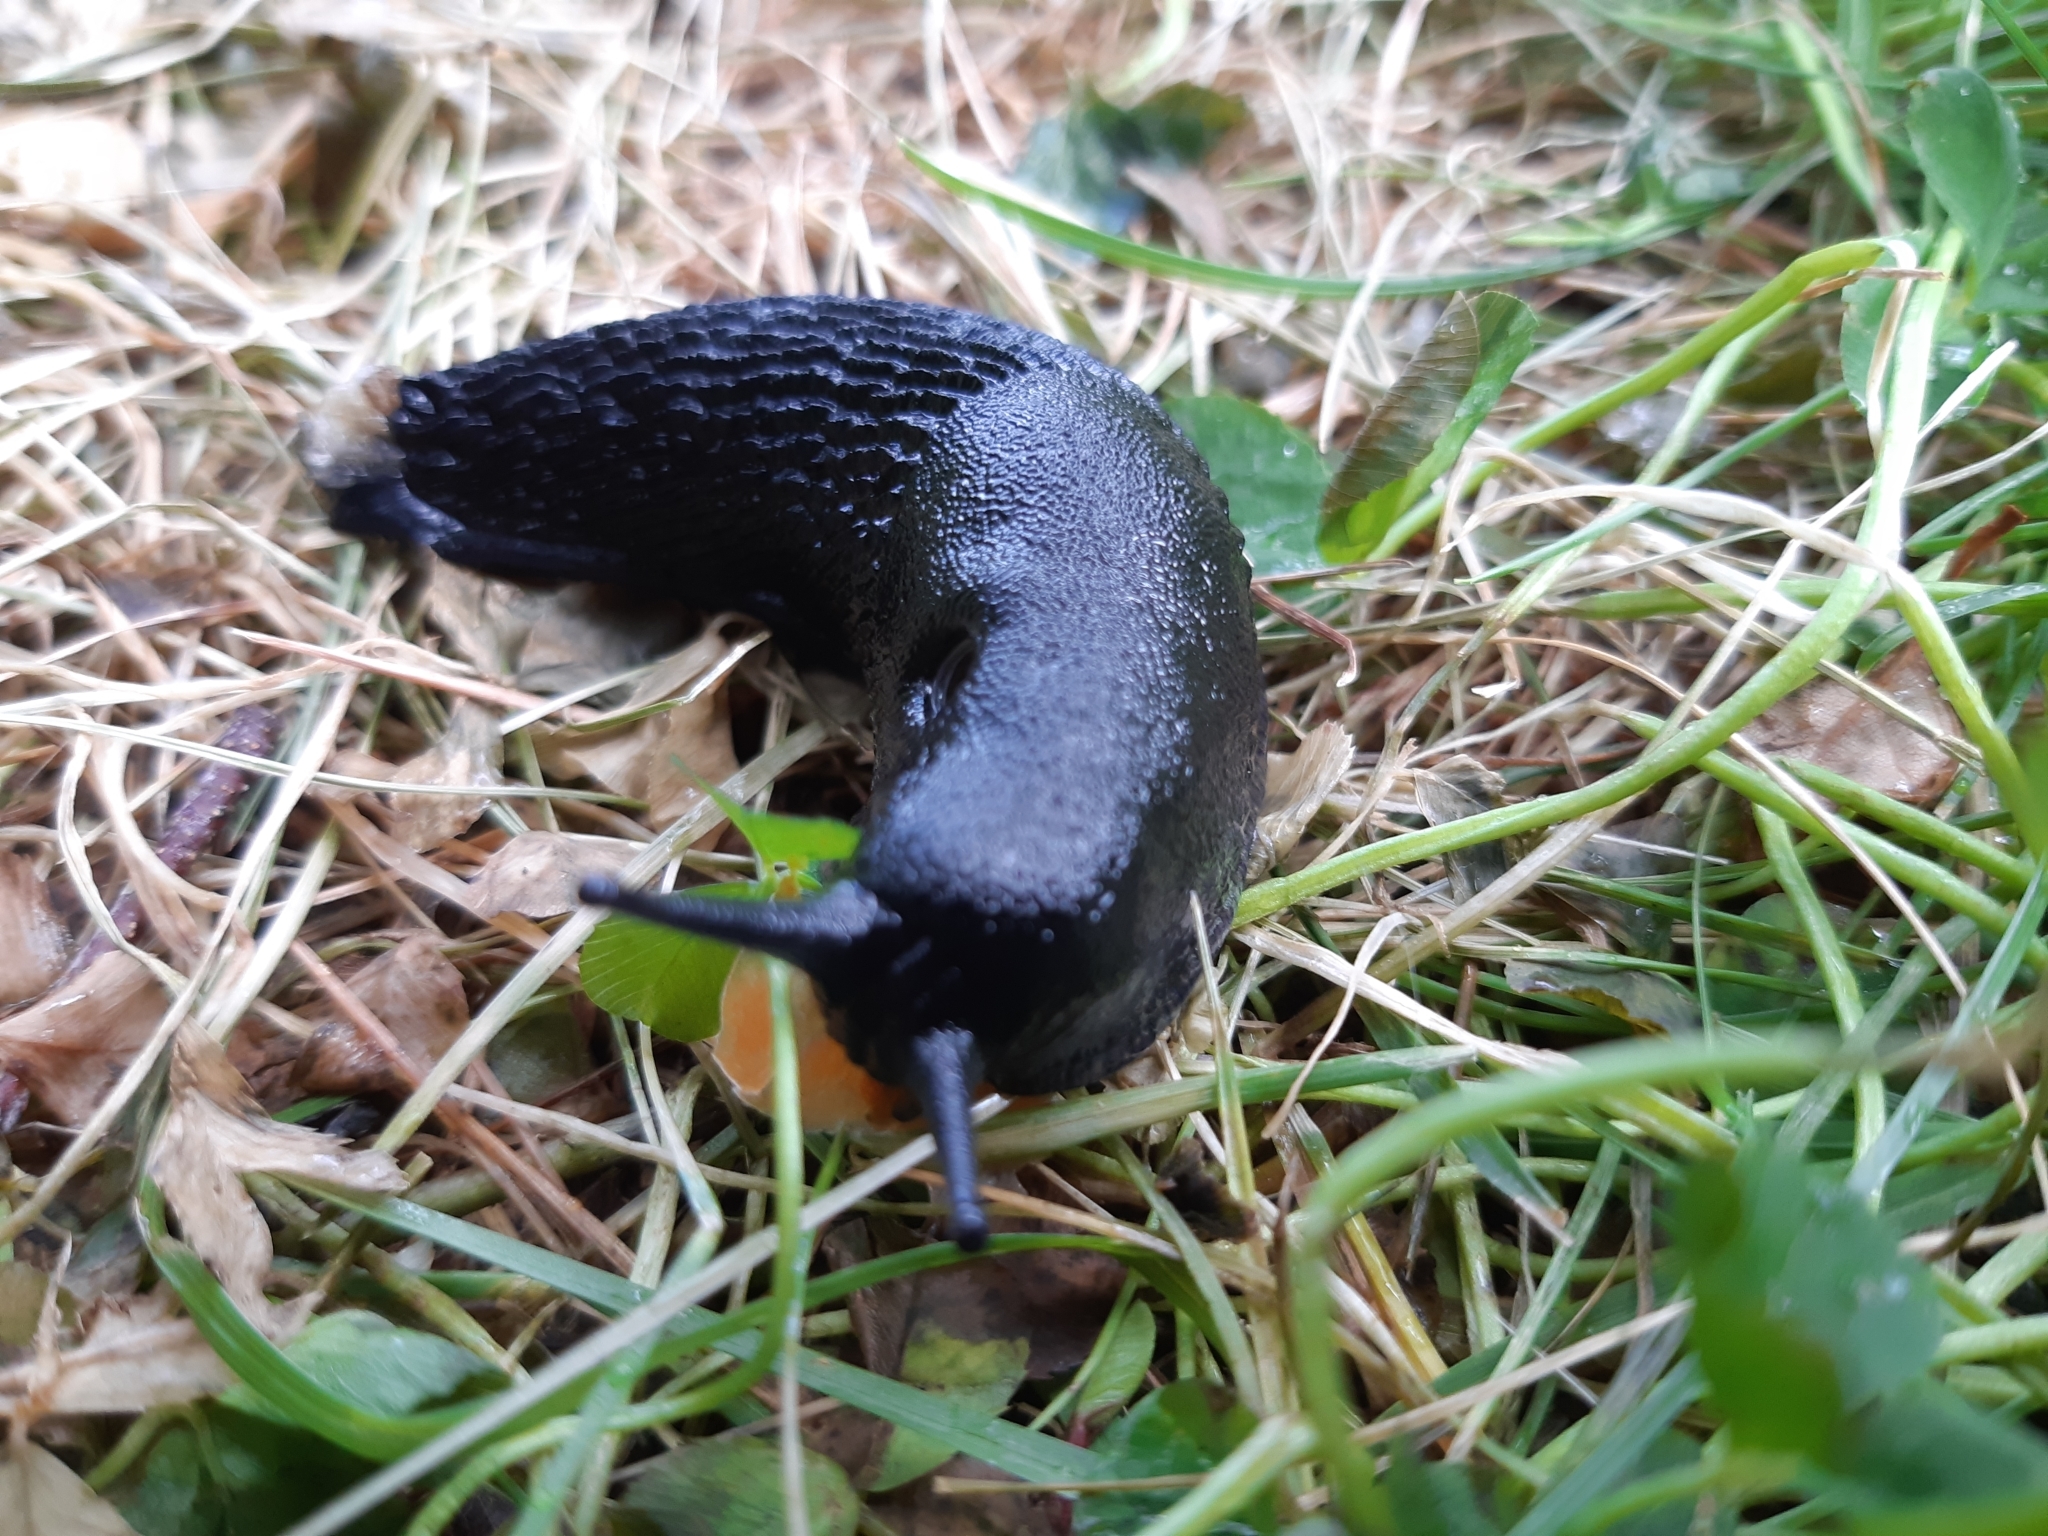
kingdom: Animalia
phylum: Mollusca
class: Gastropoda
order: Stylommatophora
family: Arionidae
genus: Arion
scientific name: Arion ater
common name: Black arion
